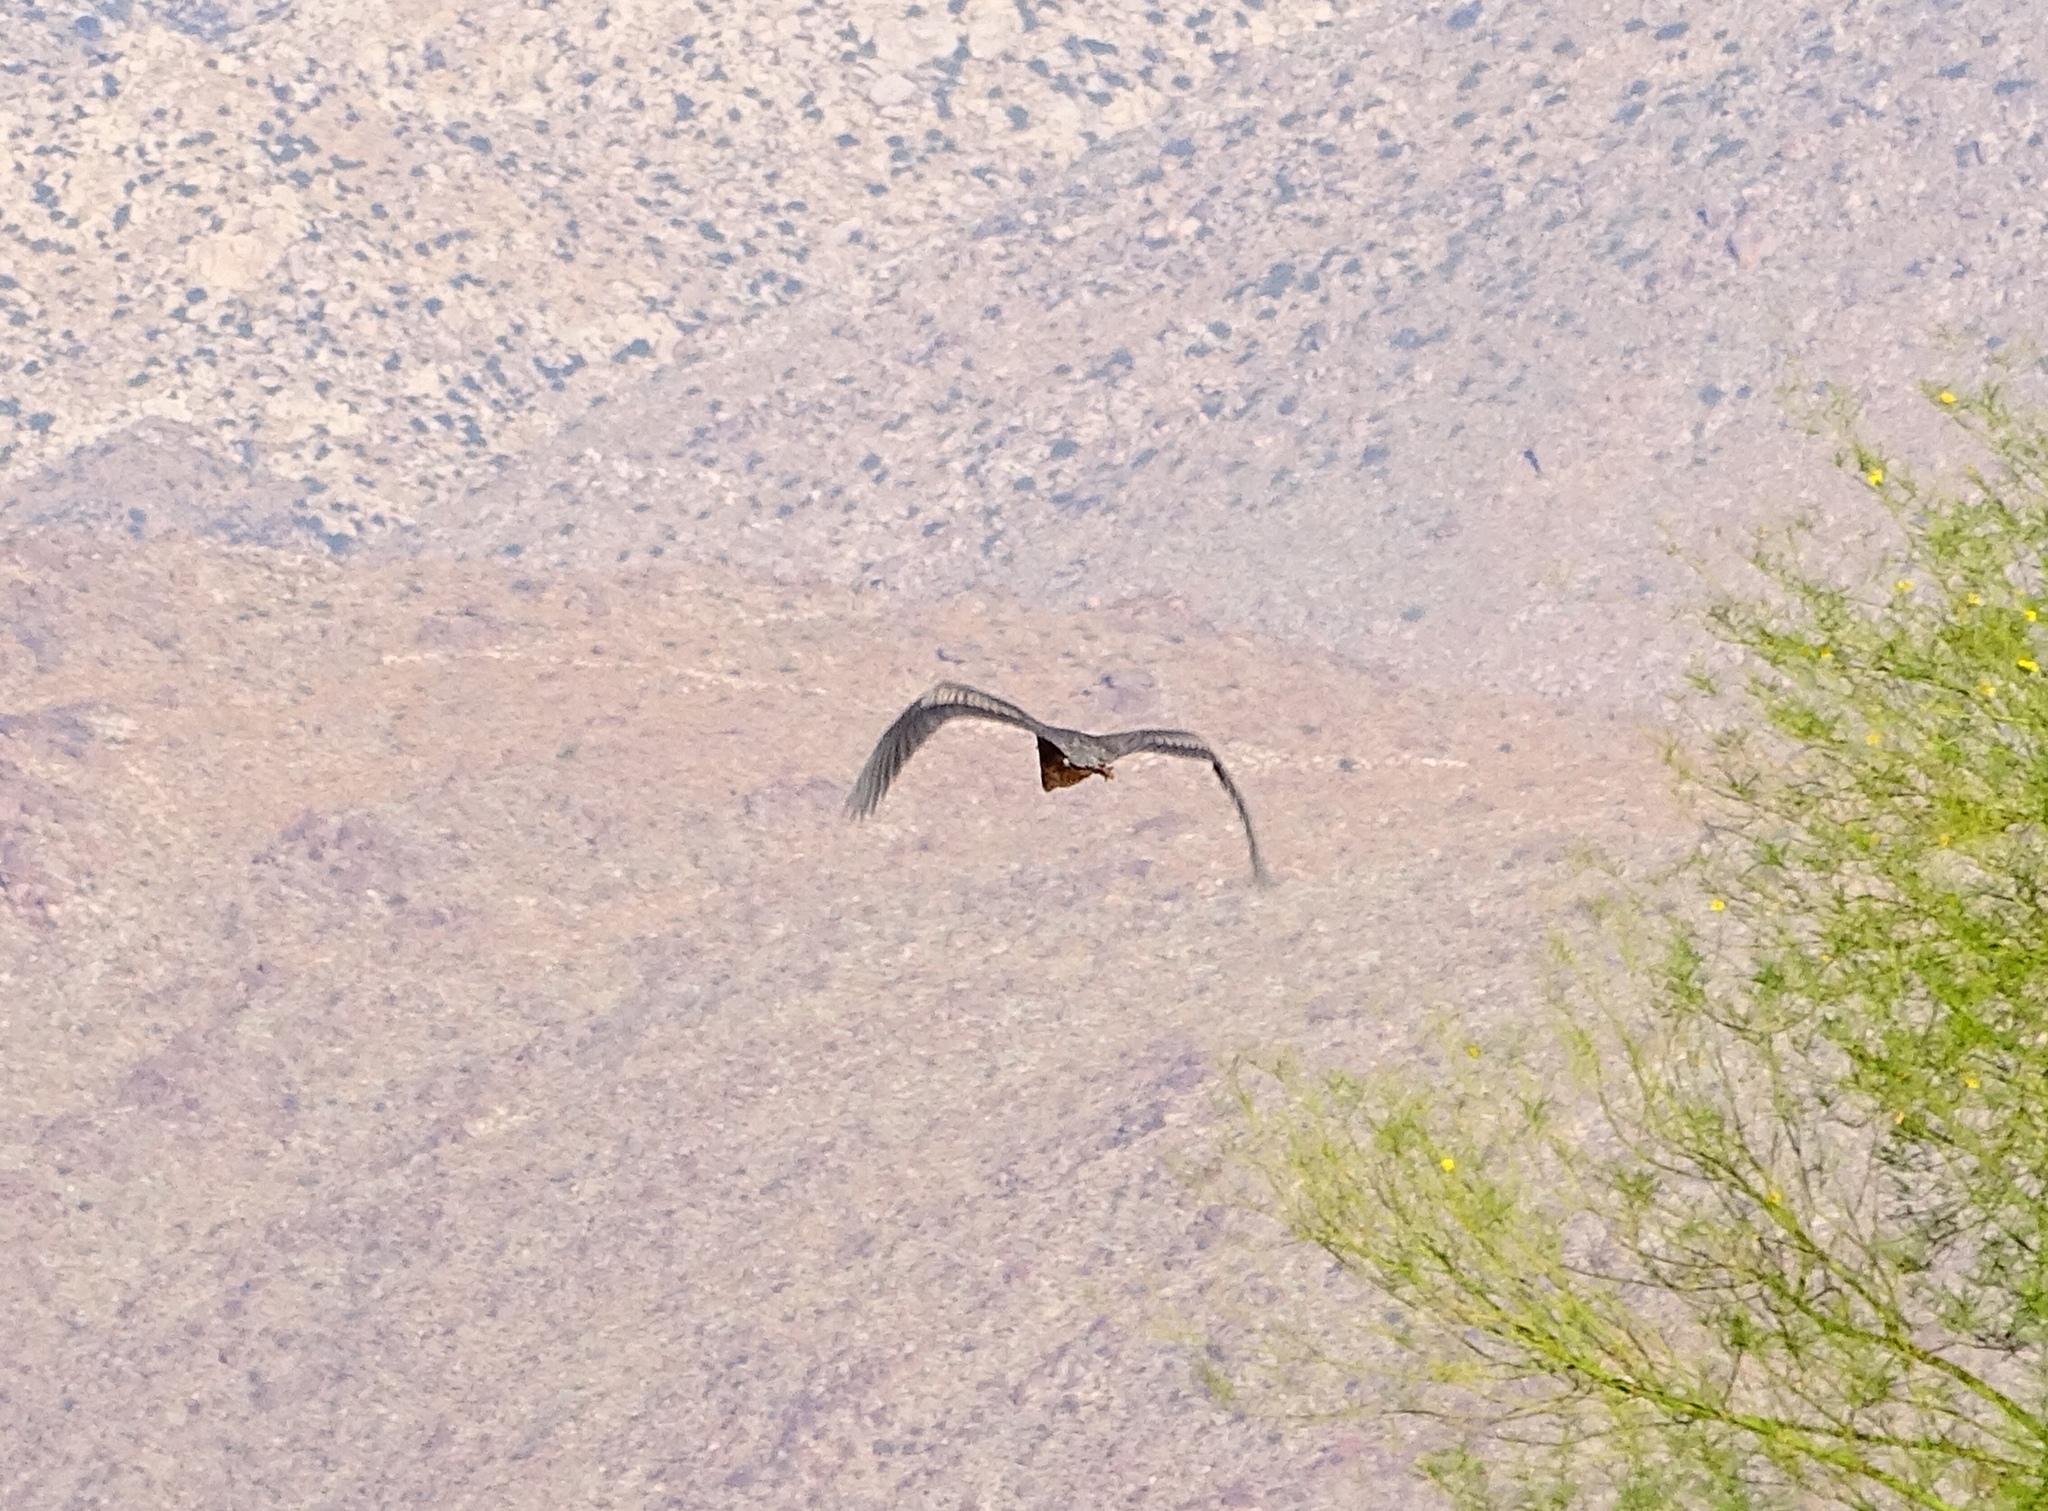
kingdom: Animalia
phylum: Chordata
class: Aves
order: Pelecaniformes
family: Ardeidae
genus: Ardea
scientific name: Ardea herodias
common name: Great blue heron
